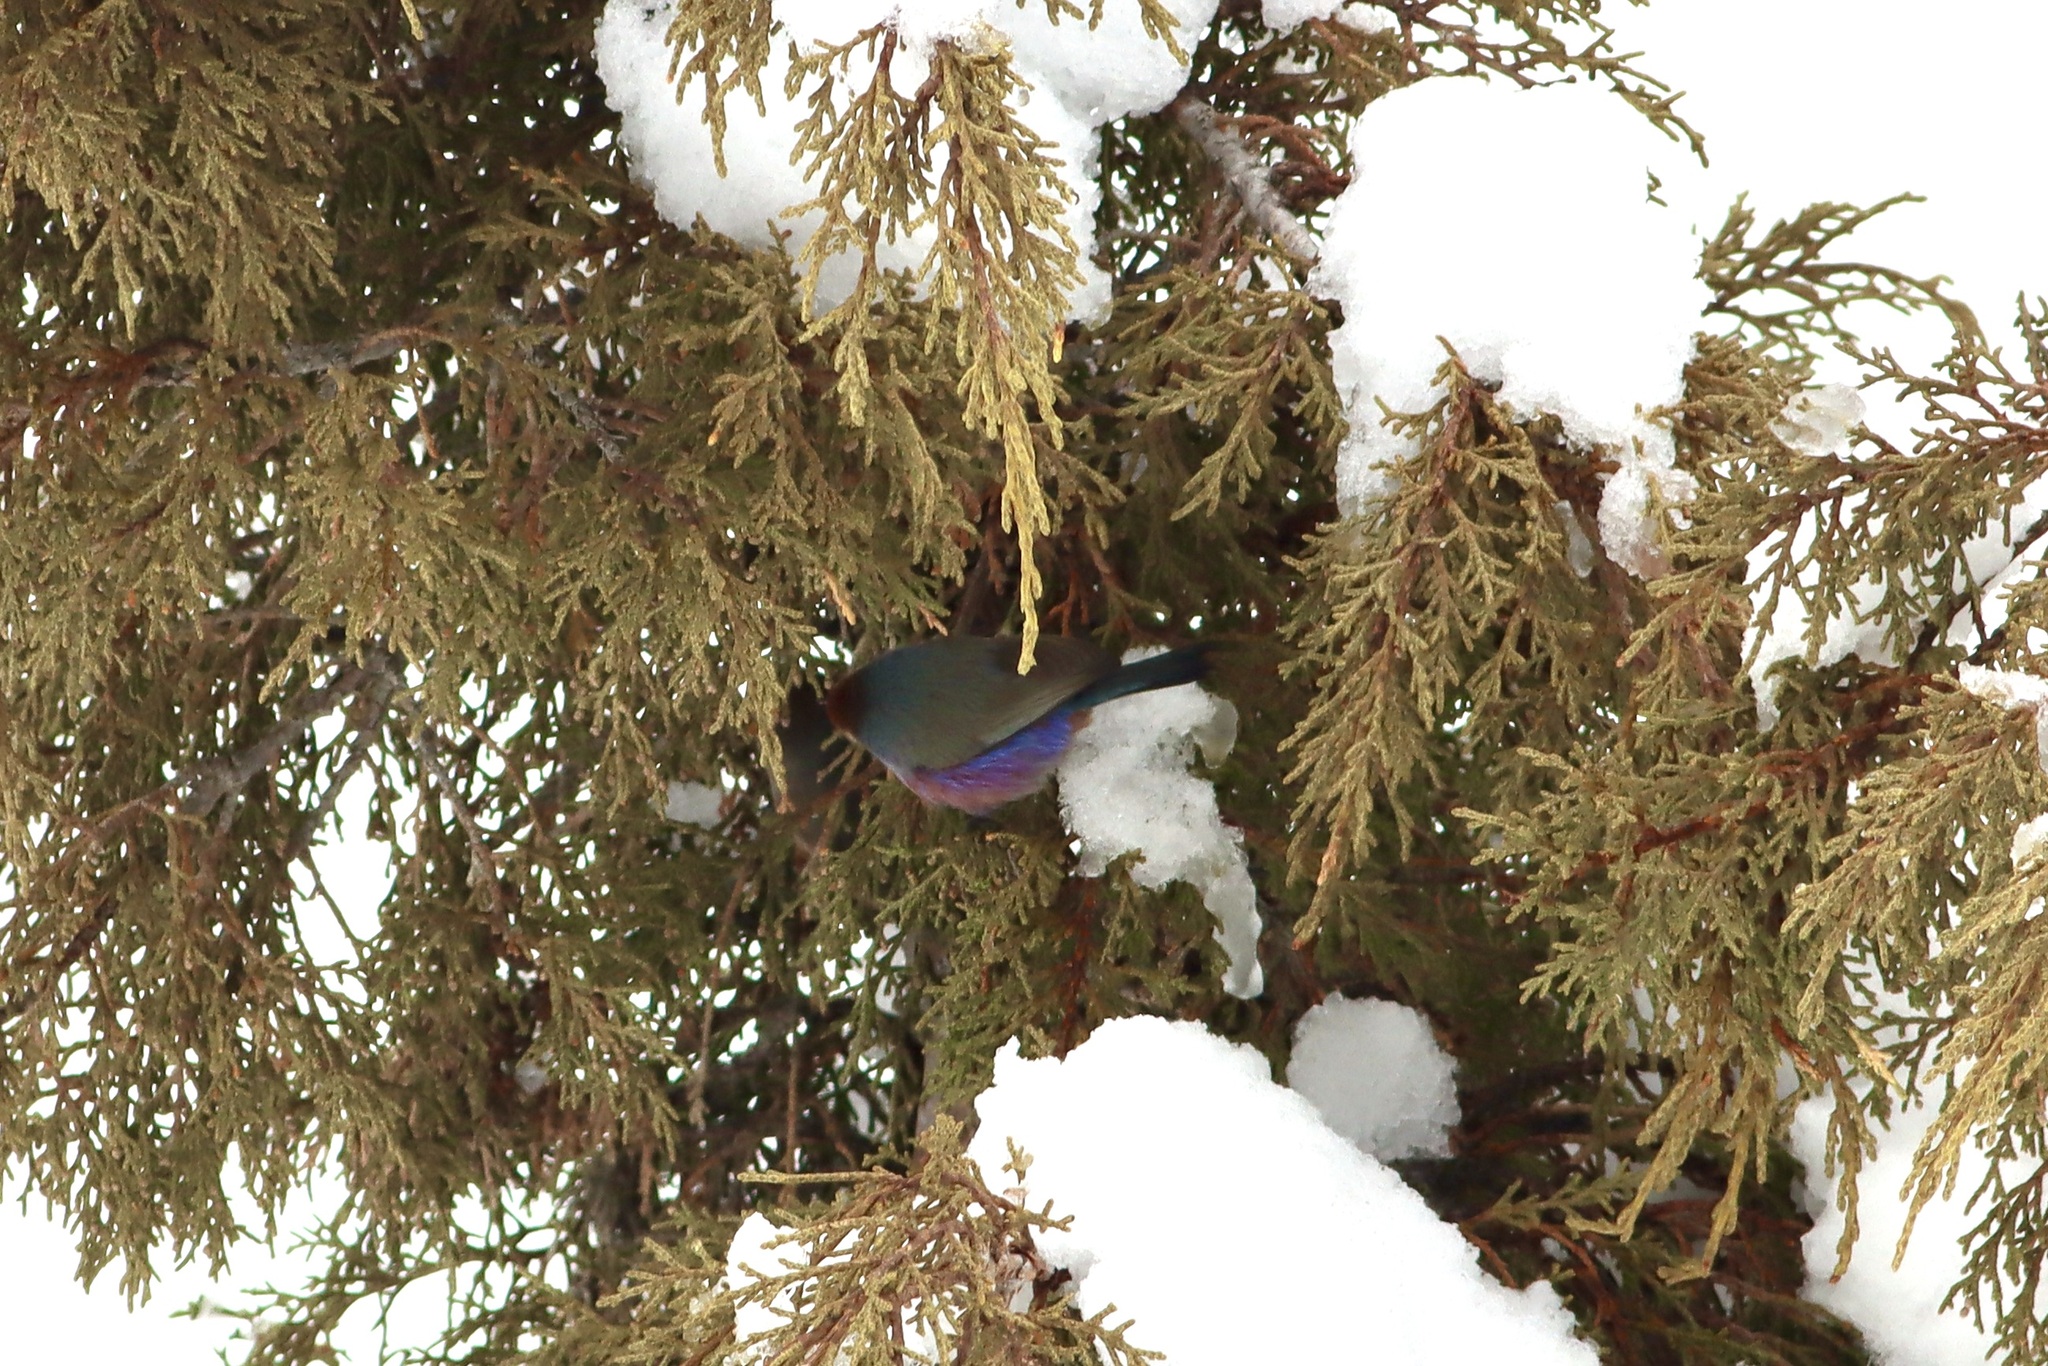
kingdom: Animalia
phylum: Chordata
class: Aves
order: Passeriformes
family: Aegithalidae
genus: Leptopoecile
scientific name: Leptopoecile sophiae
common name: White-browed tit-warbler
